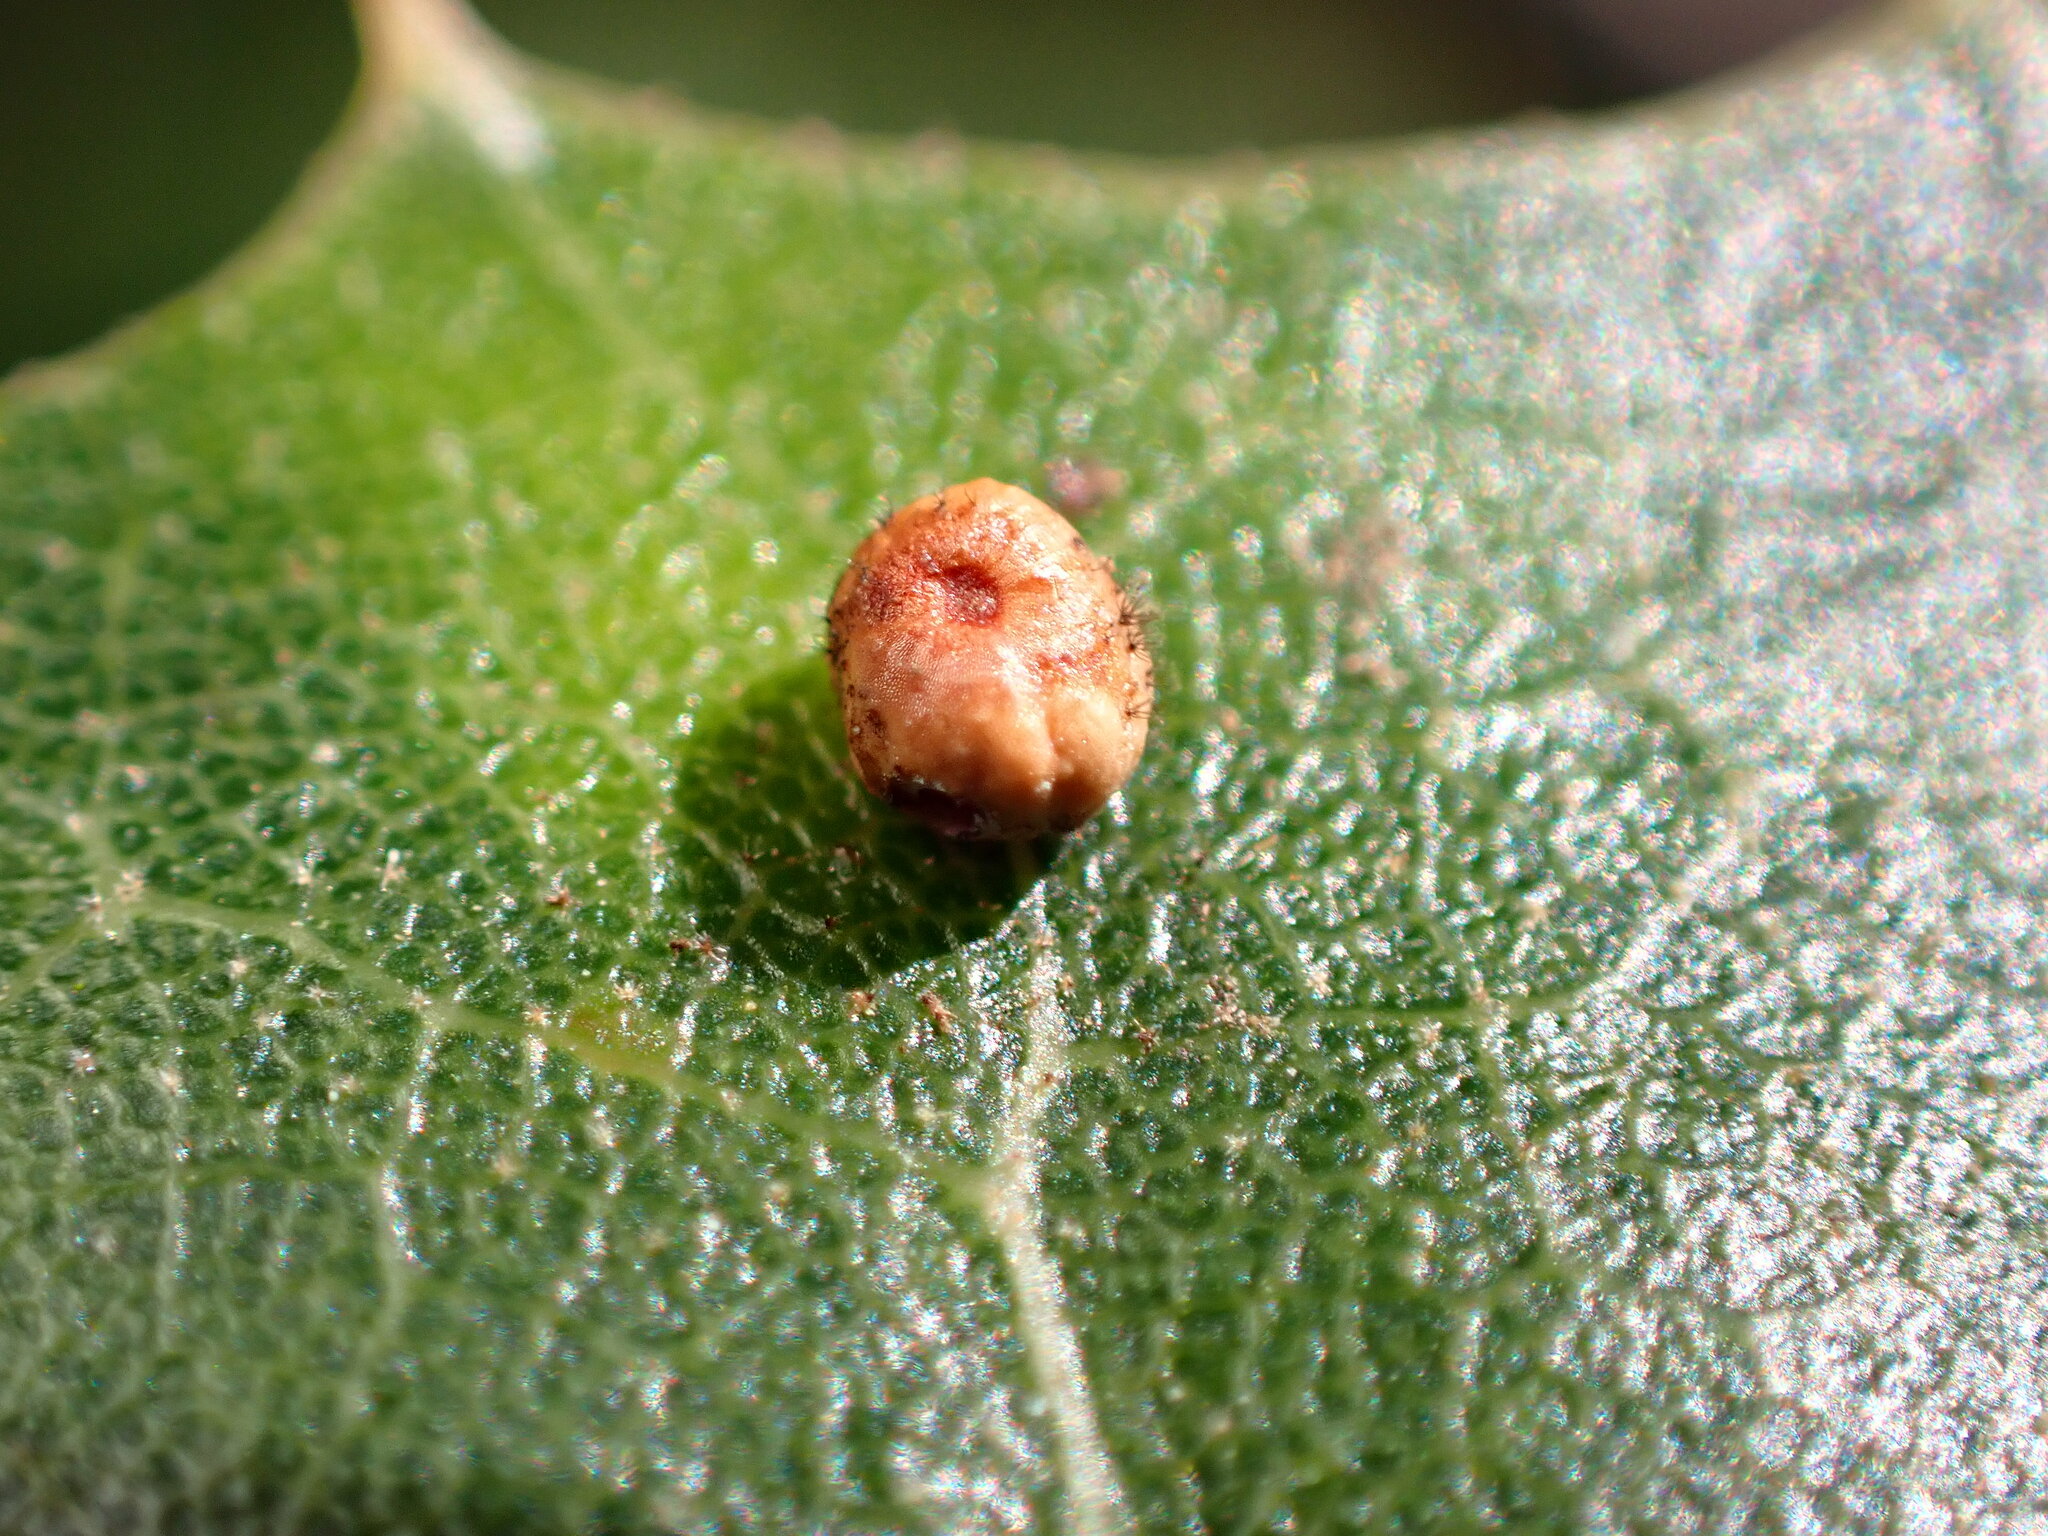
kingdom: Animalia
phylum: Arthropoda
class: Insecta
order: Hymenoptera
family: Cynipidae
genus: Dryocosmus
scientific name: Dryocosmus
